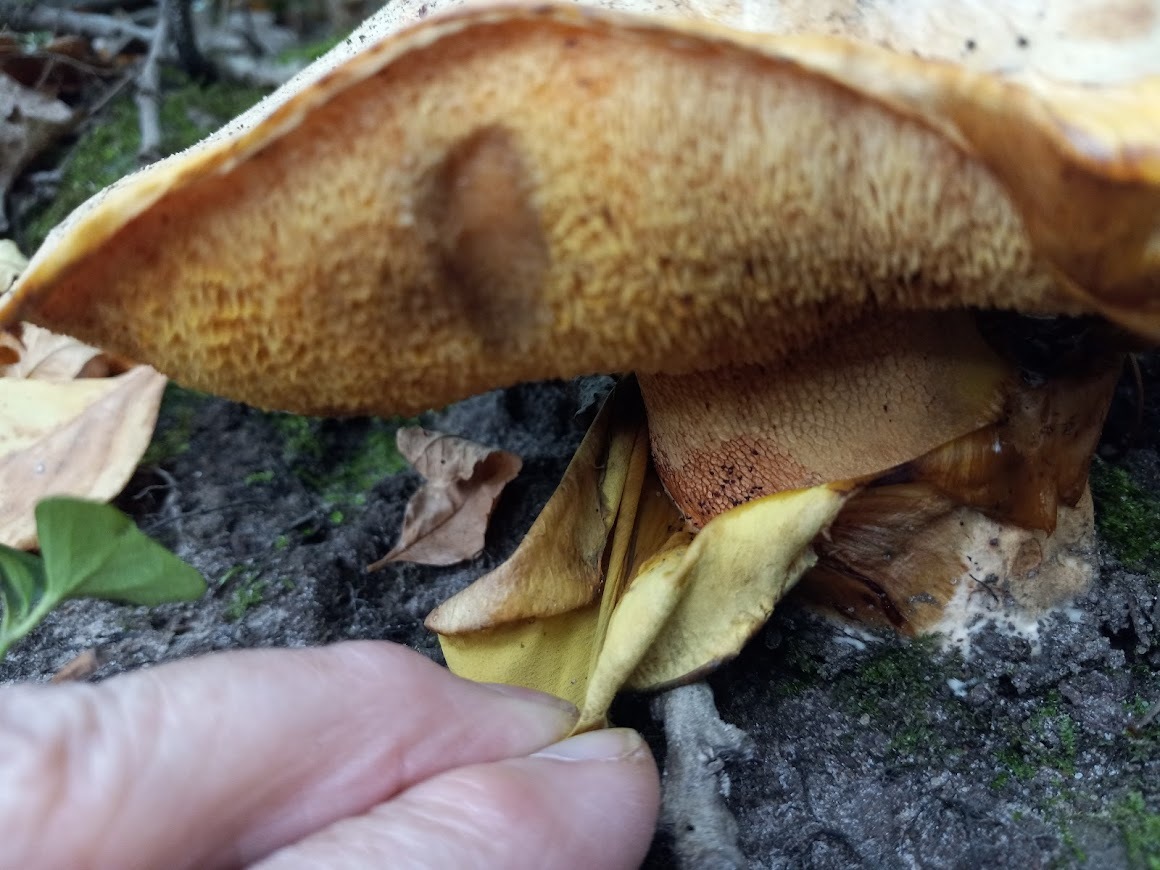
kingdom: Fungi
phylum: Basidiomycota
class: Agaricomycetes
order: Boletales
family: Paxillaceae
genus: Paragyrodon
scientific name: Paragyrodon sphaerosporus
